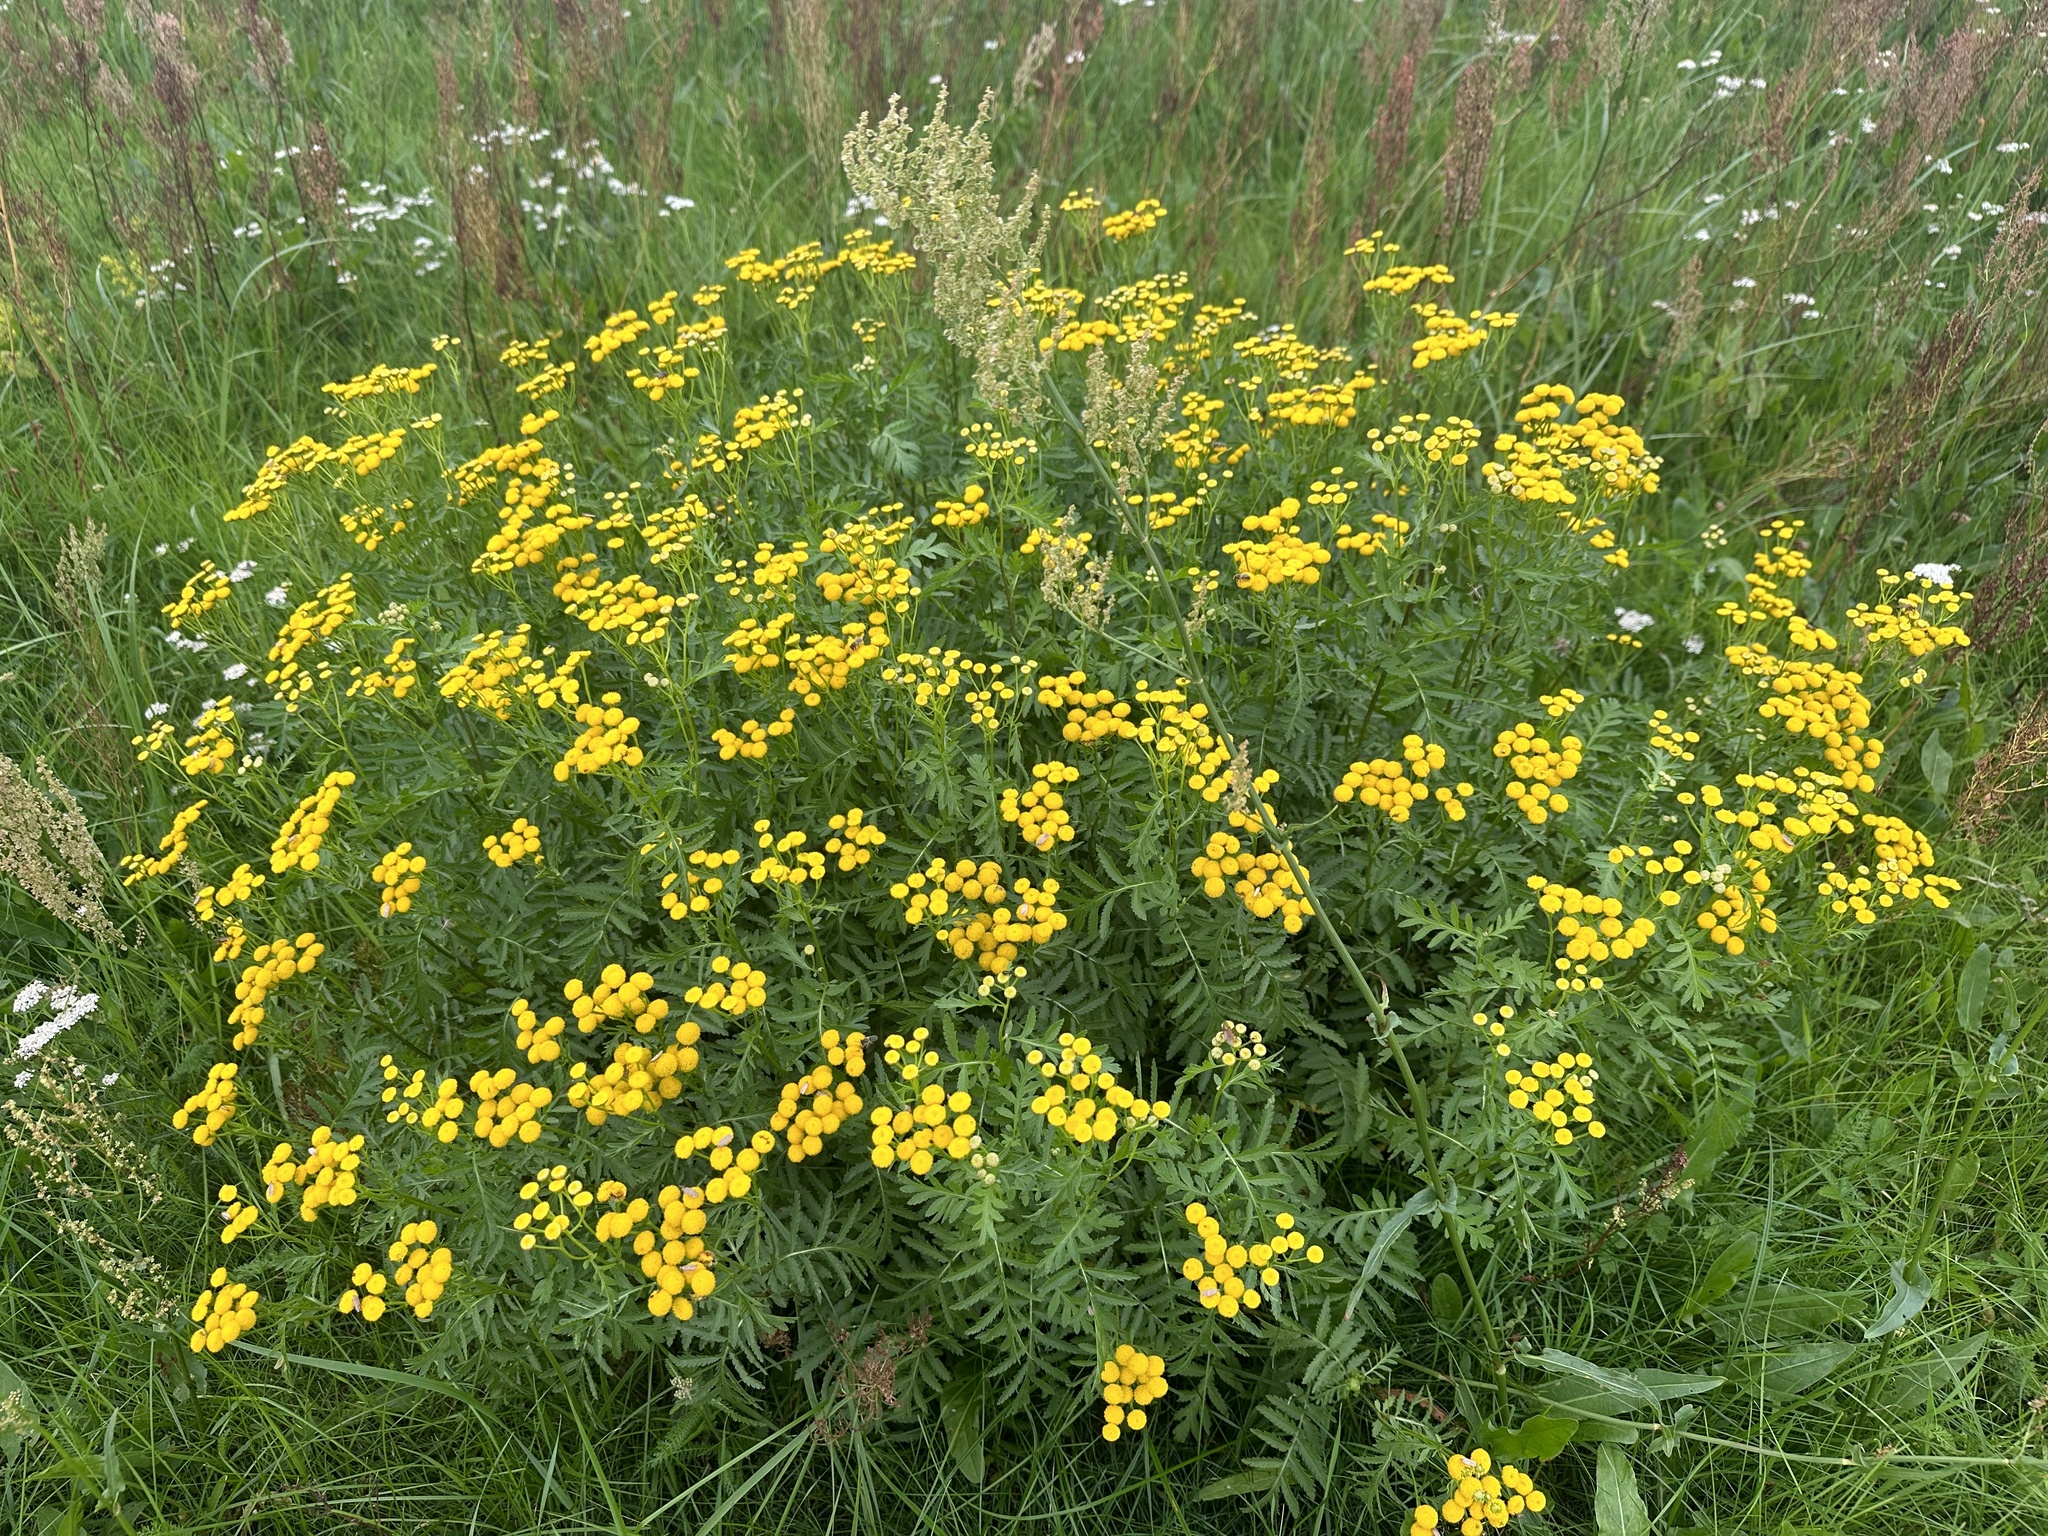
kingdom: Plantae
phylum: Tracheophyta
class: Magnoliopsida
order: Asterales
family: Asteraceae
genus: Tanacetum
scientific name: Tanacetum vulgare
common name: Common tansy
